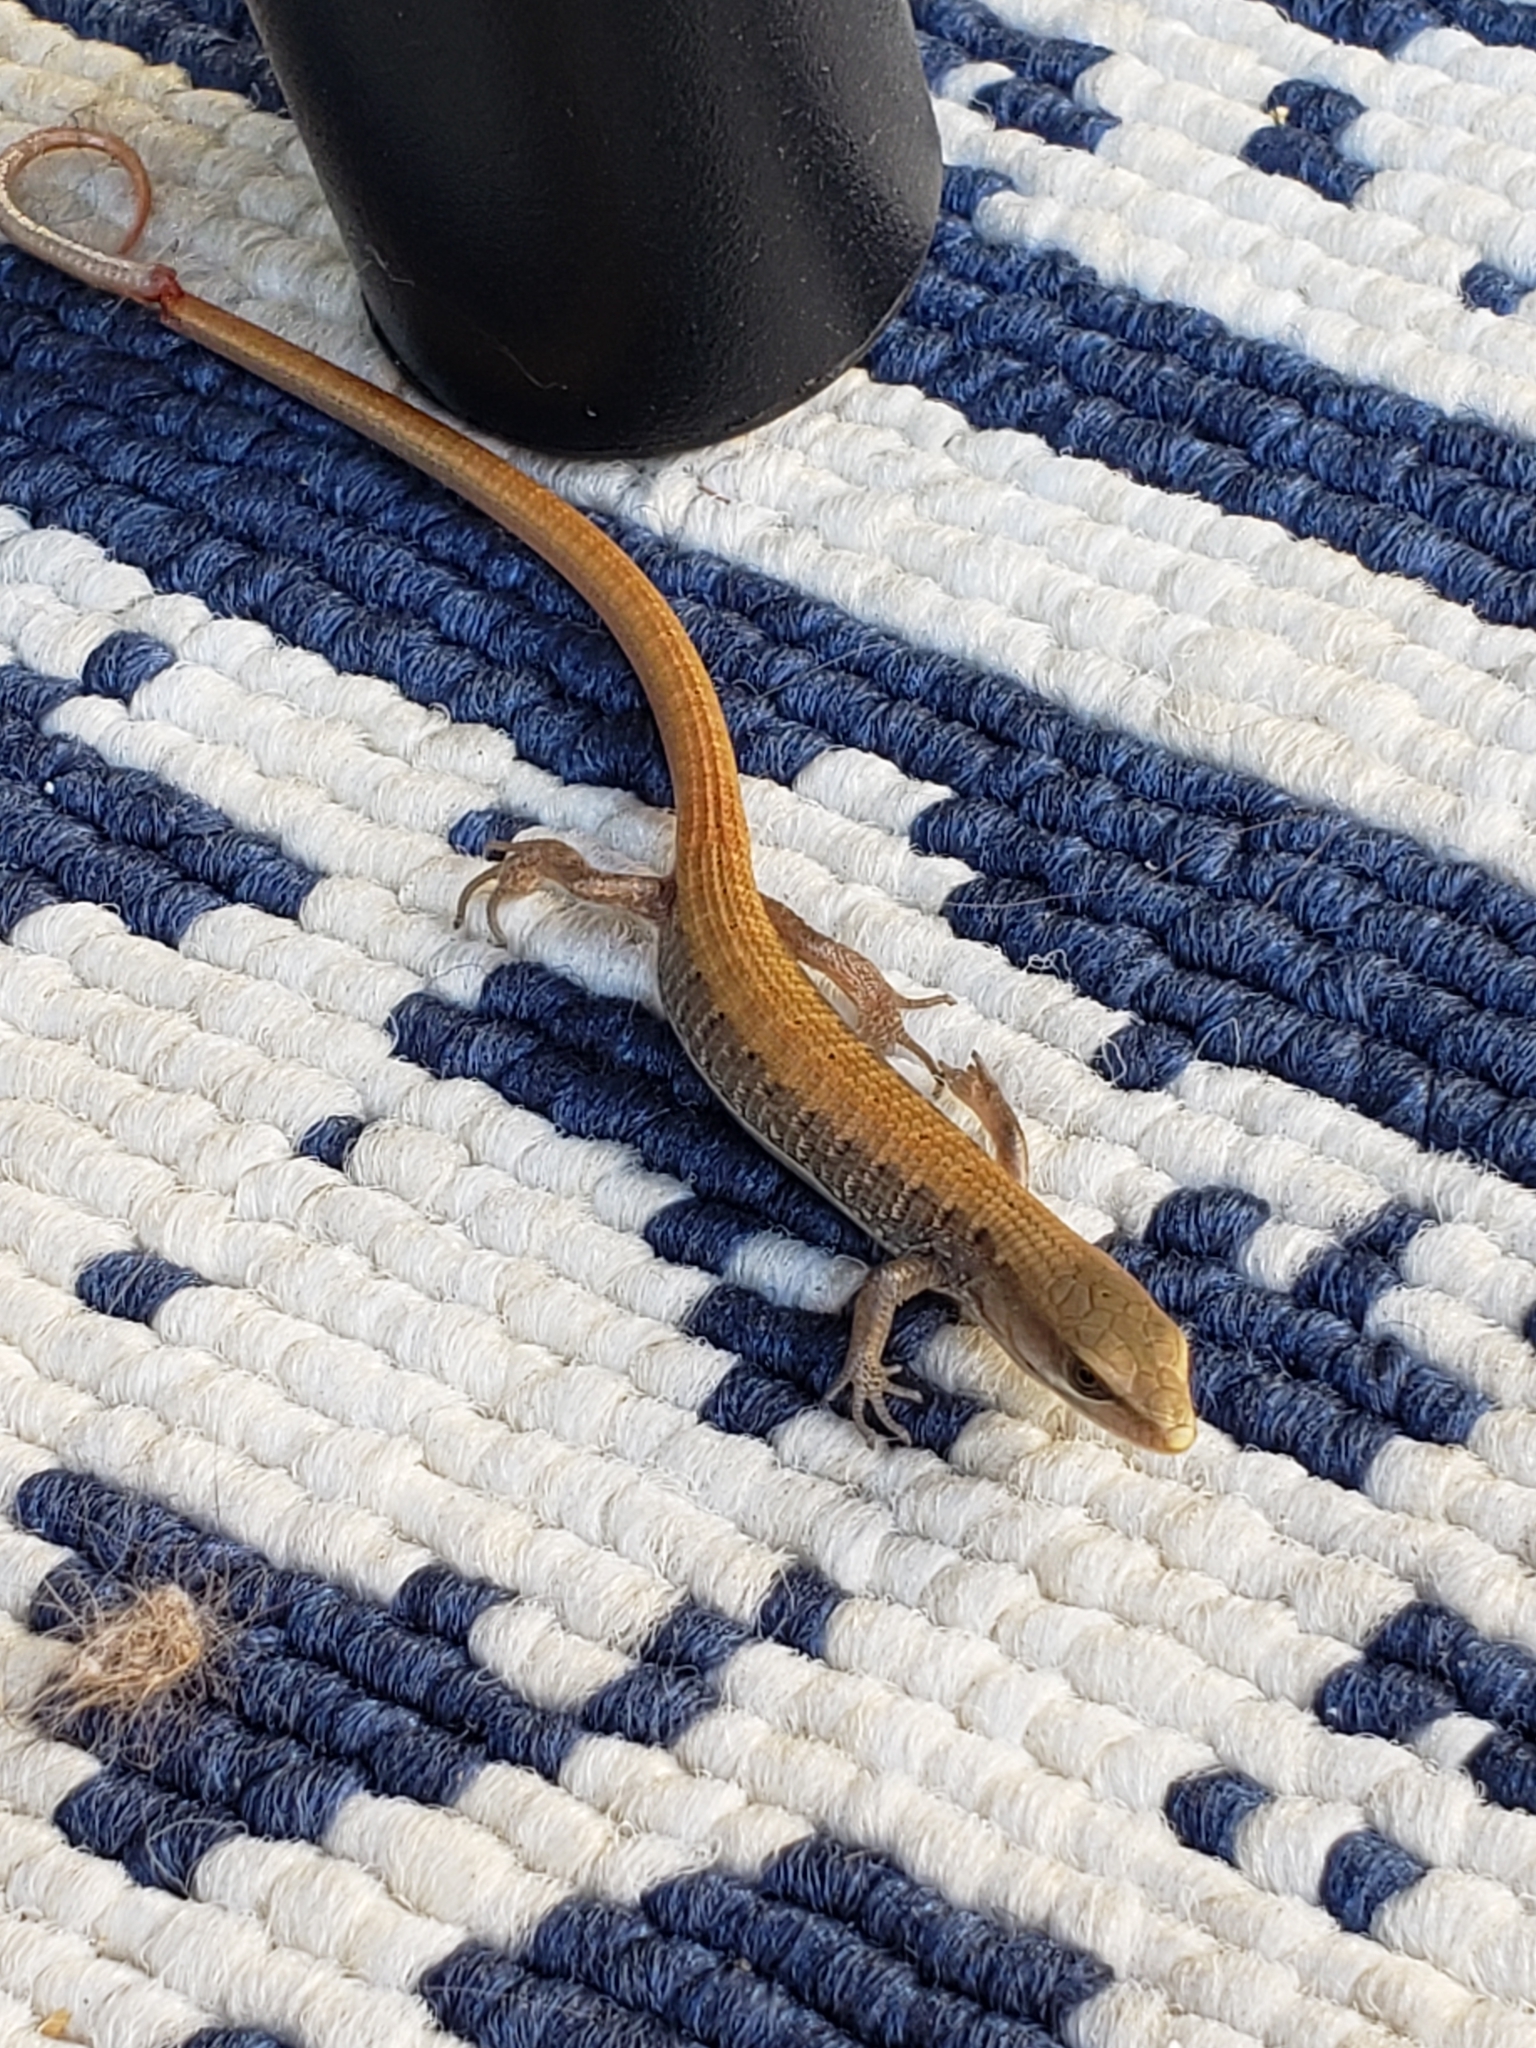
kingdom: Animalia
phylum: Chordata
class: Squamata
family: Anguidae
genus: Elgaria
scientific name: Elgaria multicarinata
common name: Southern alligator lizard
